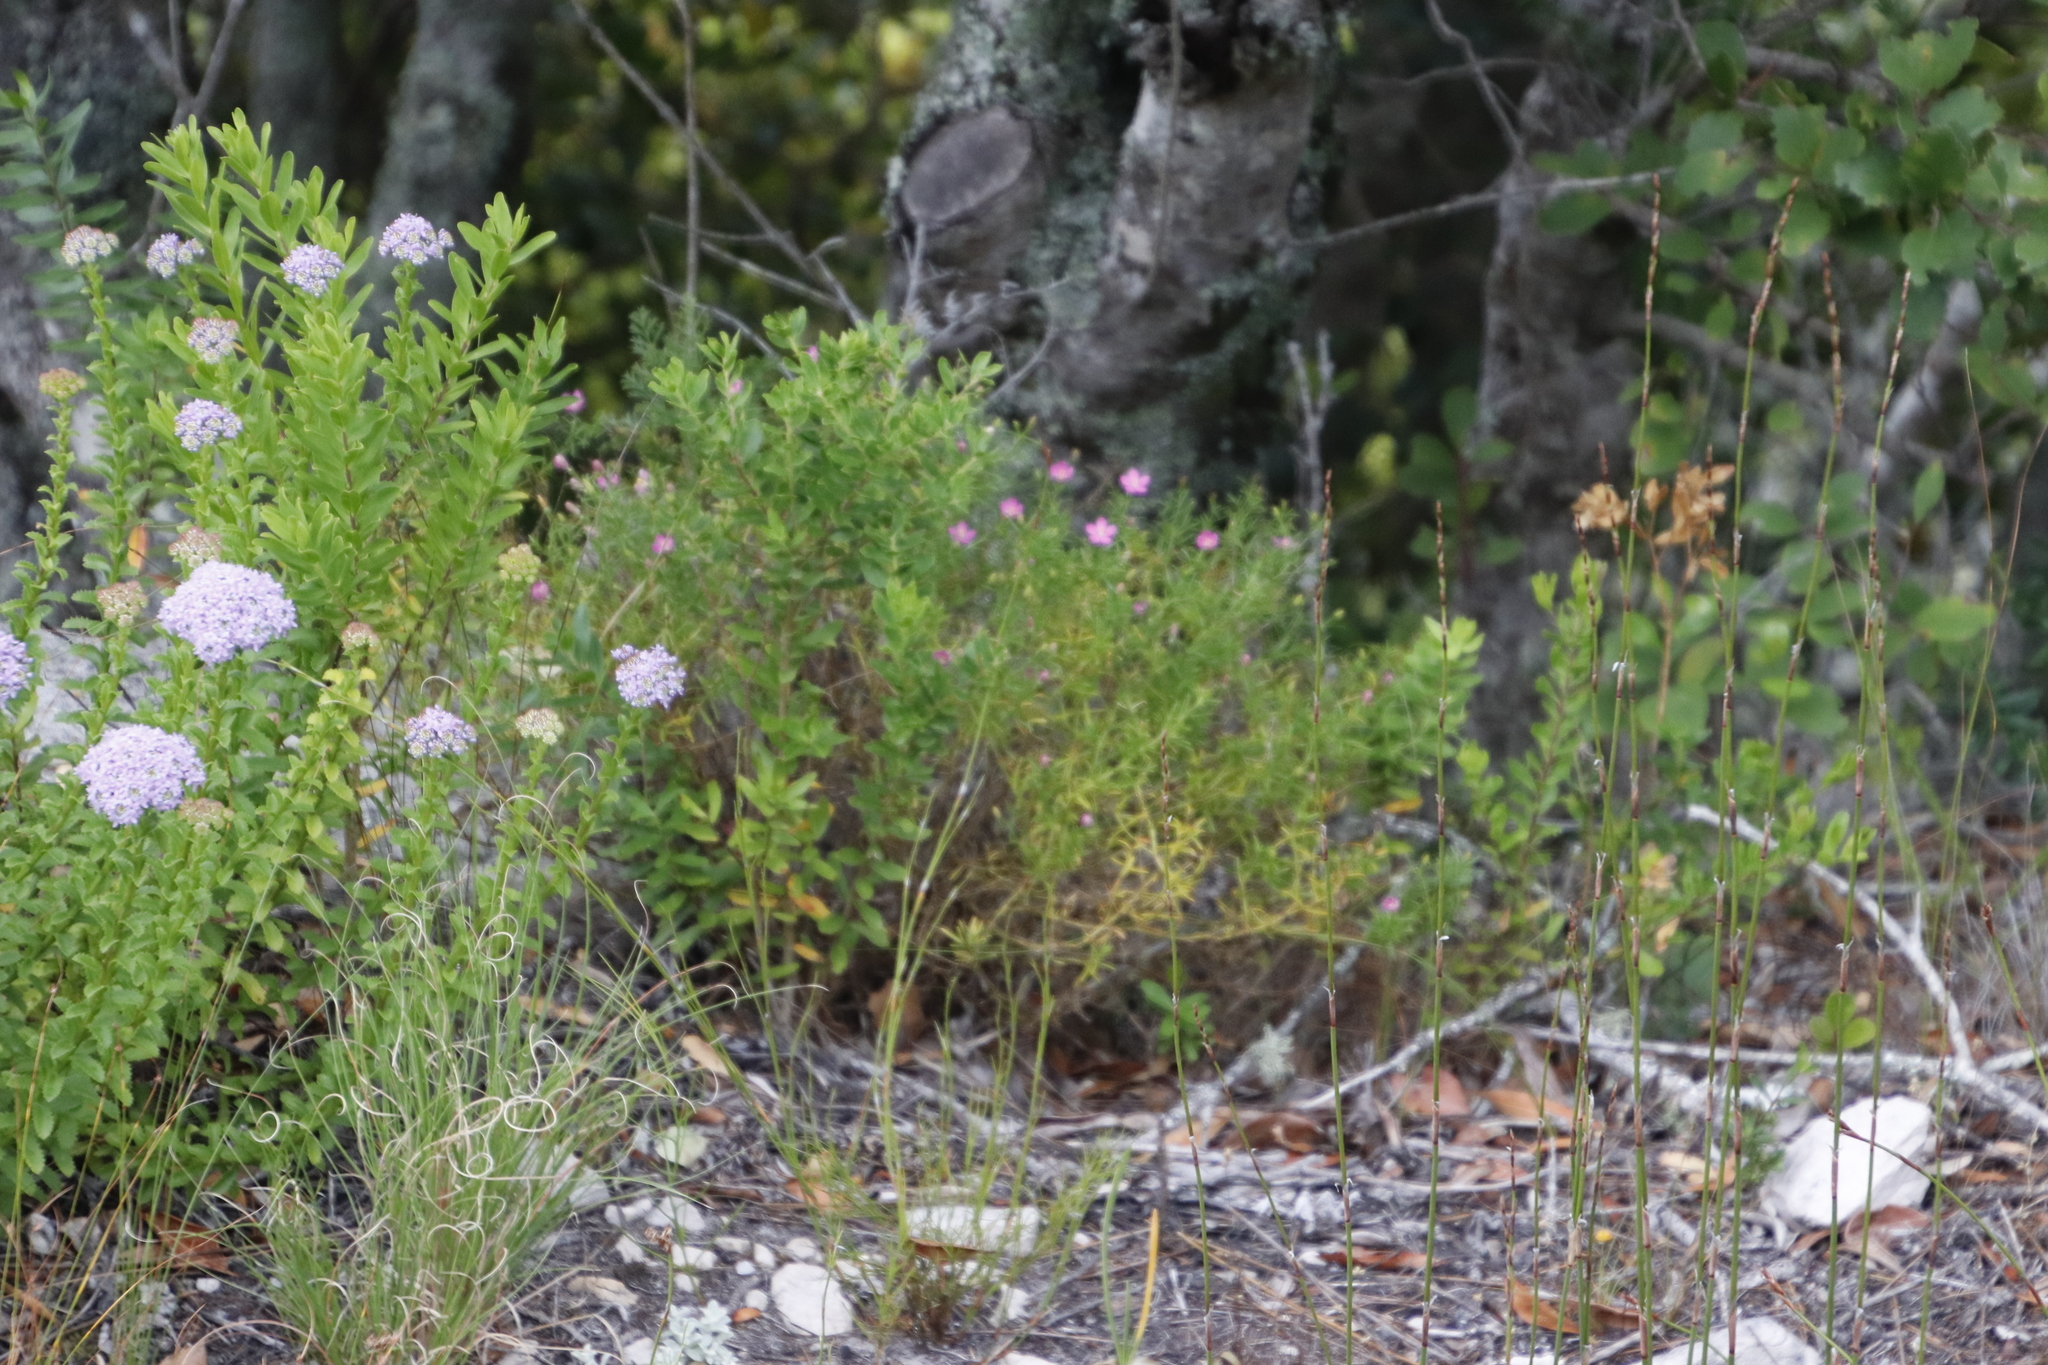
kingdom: Plantae
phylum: Tracheophyta
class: Magnoliopsida
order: Gentianales
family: Gentianaceae
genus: Chironia
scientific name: Chironia baccifera
